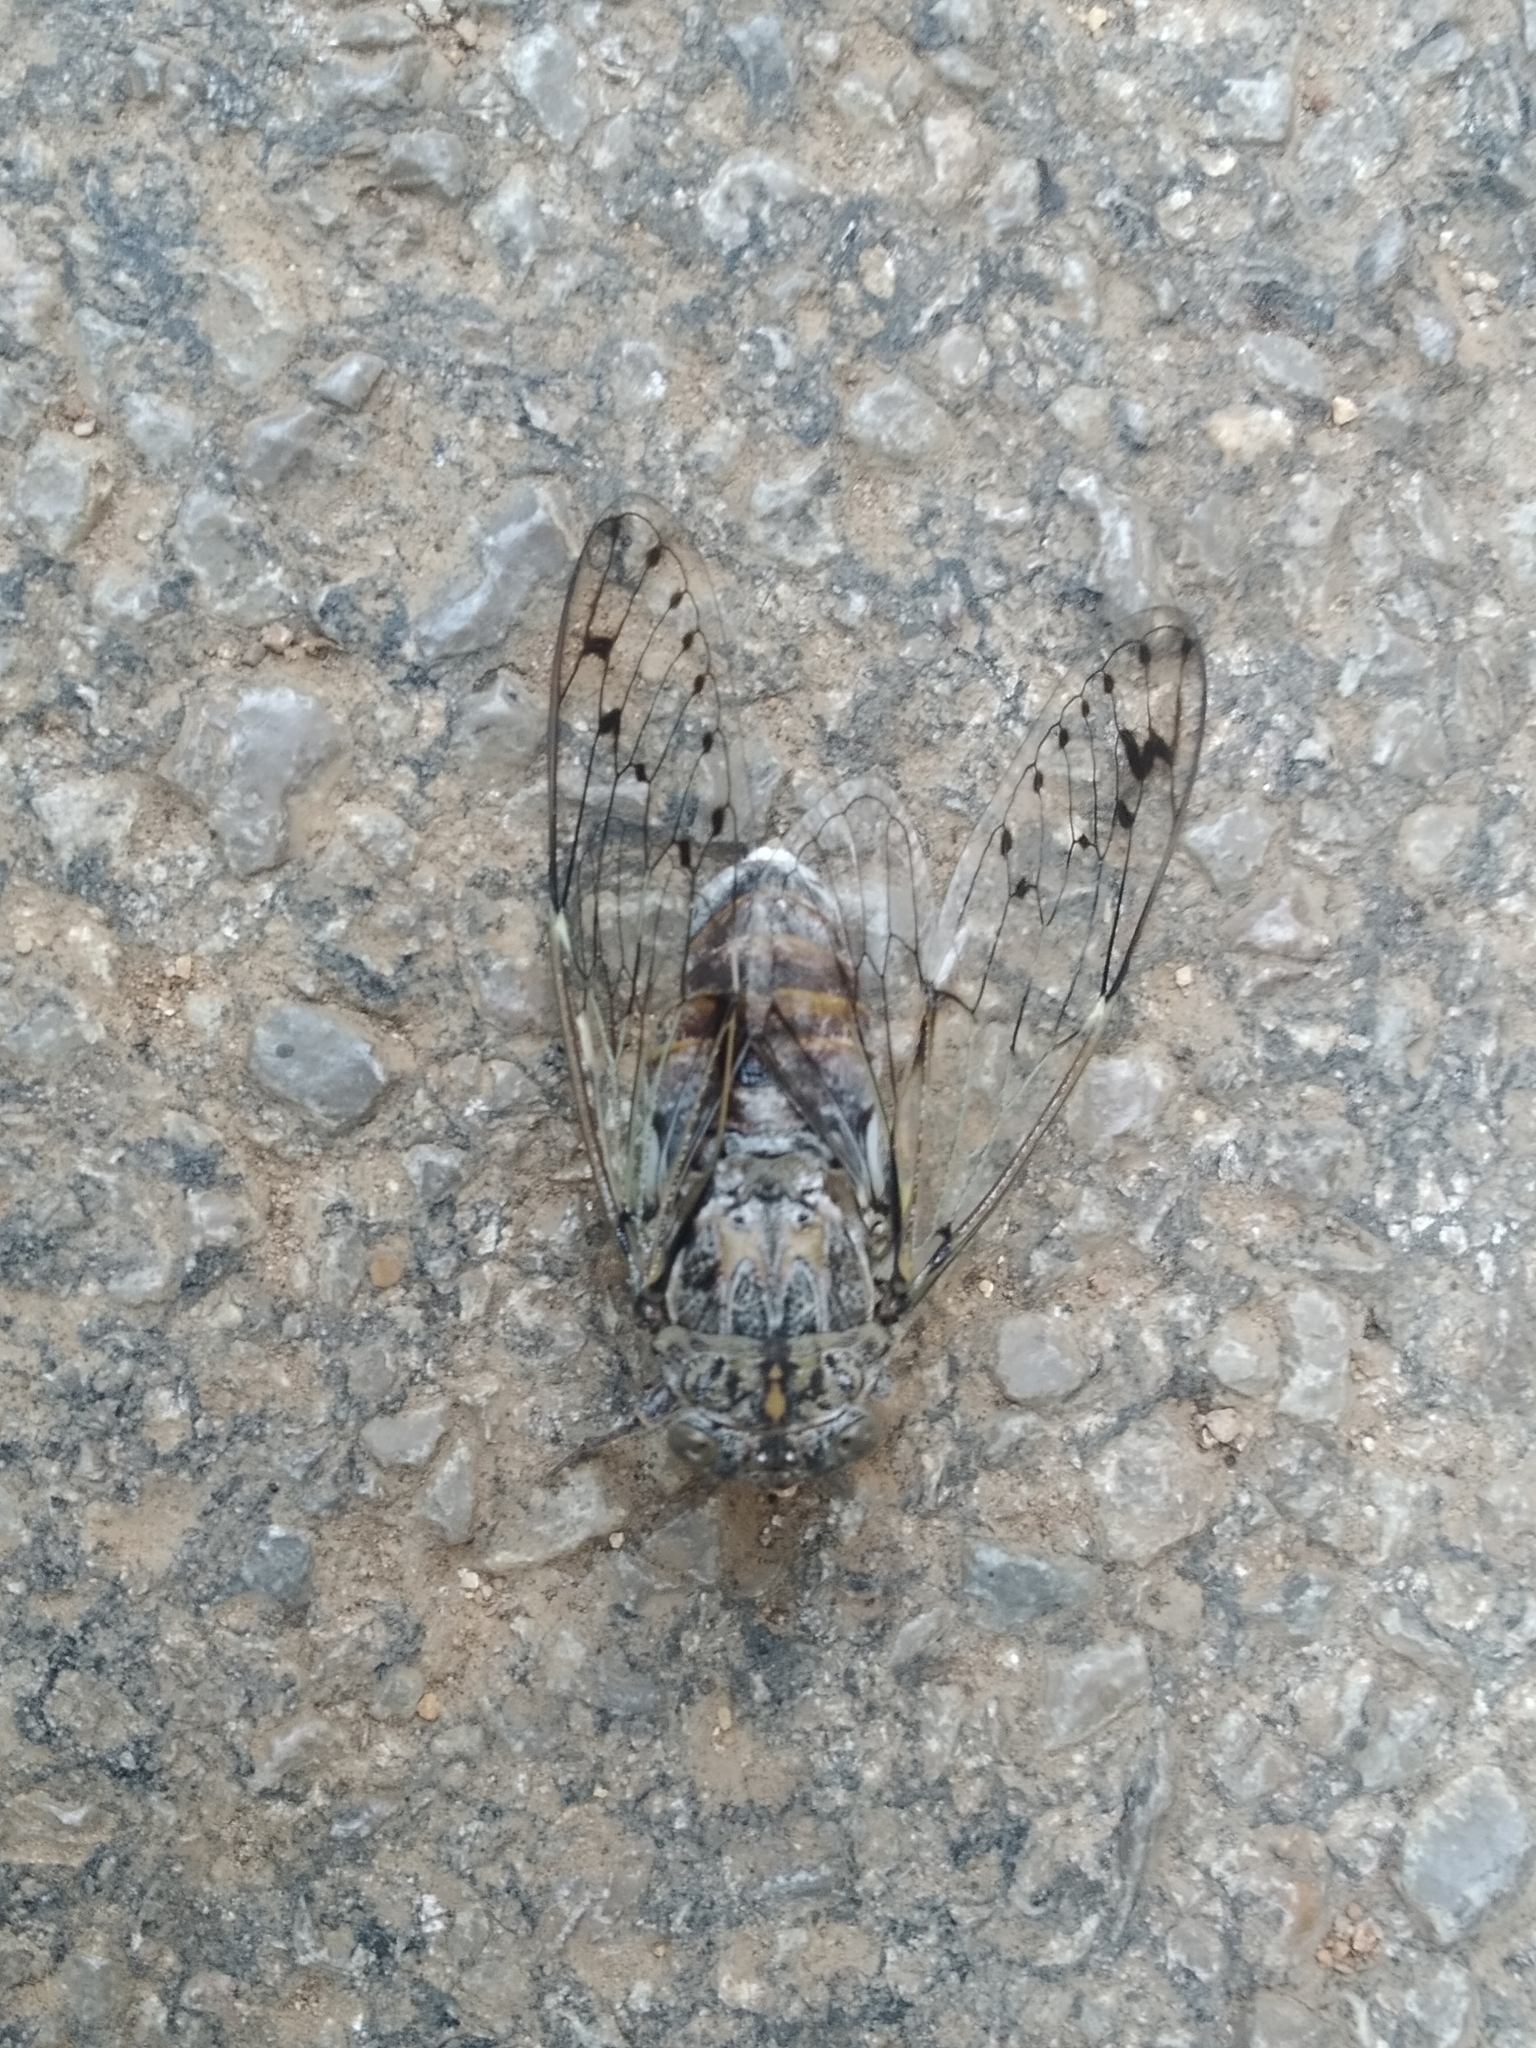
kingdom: Animalia
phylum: Arthropoda
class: Insecta
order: Hemiptera
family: Cicadidae
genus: Cicada
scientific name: Cicada orni
